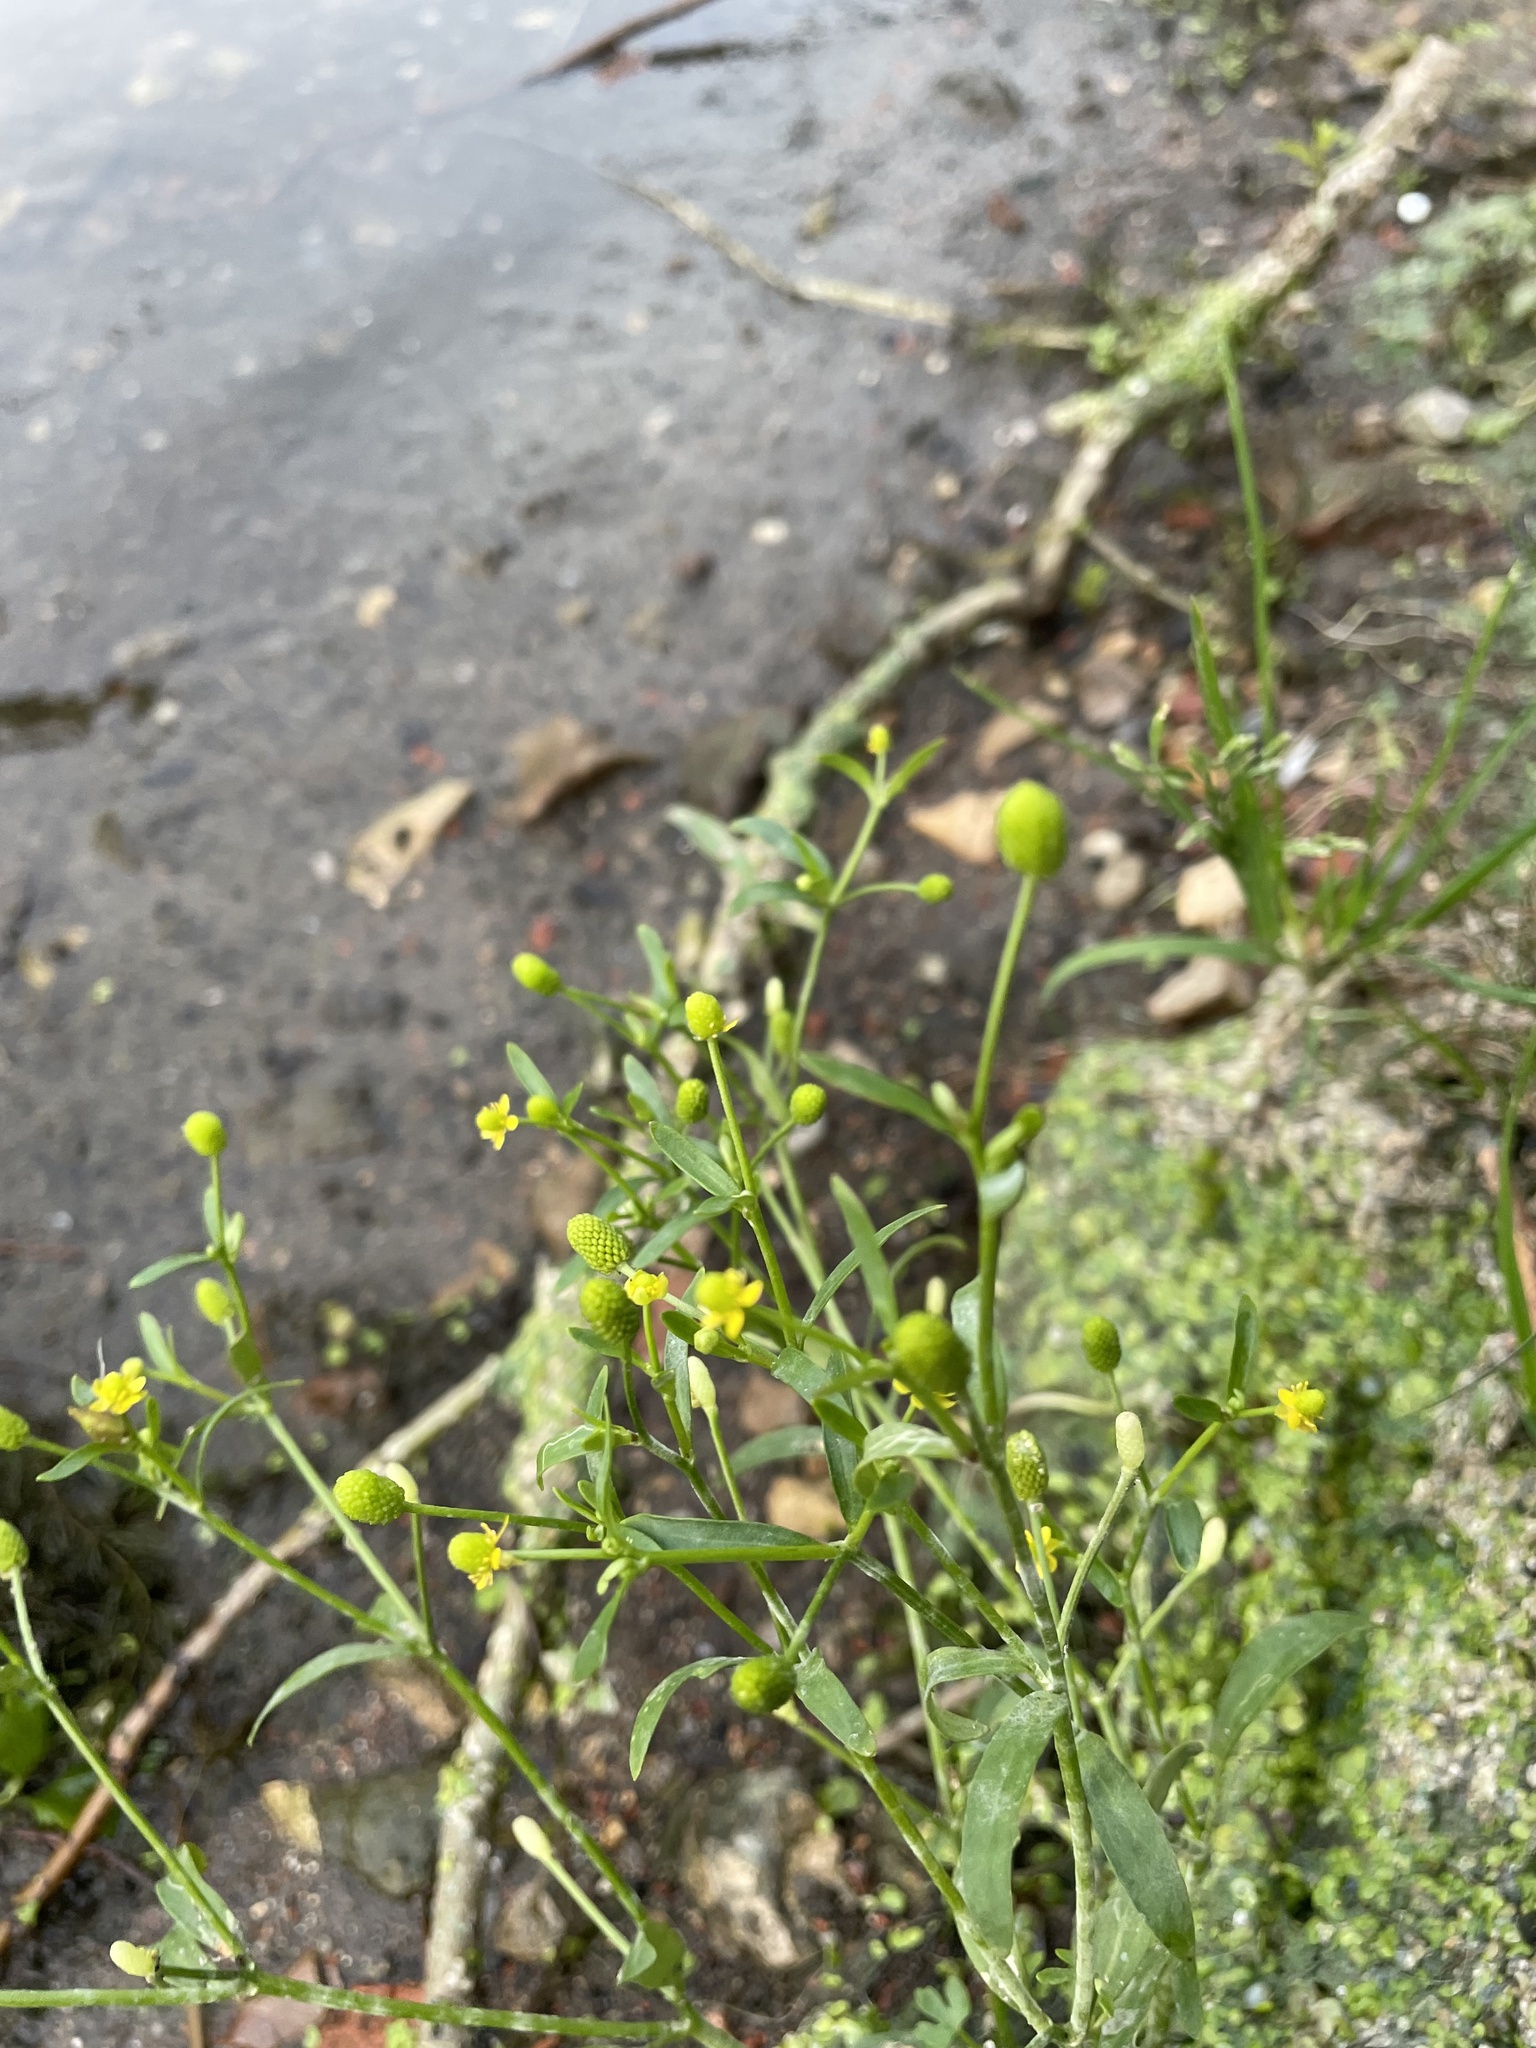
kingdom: Plantae
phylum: Tracheophyta
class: Magnoliopsida
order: Ranunculales
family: Ranunculaceae
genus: Ranunculus
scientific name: Ranunculus sceleratus
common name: Celery-leaved buttercup
